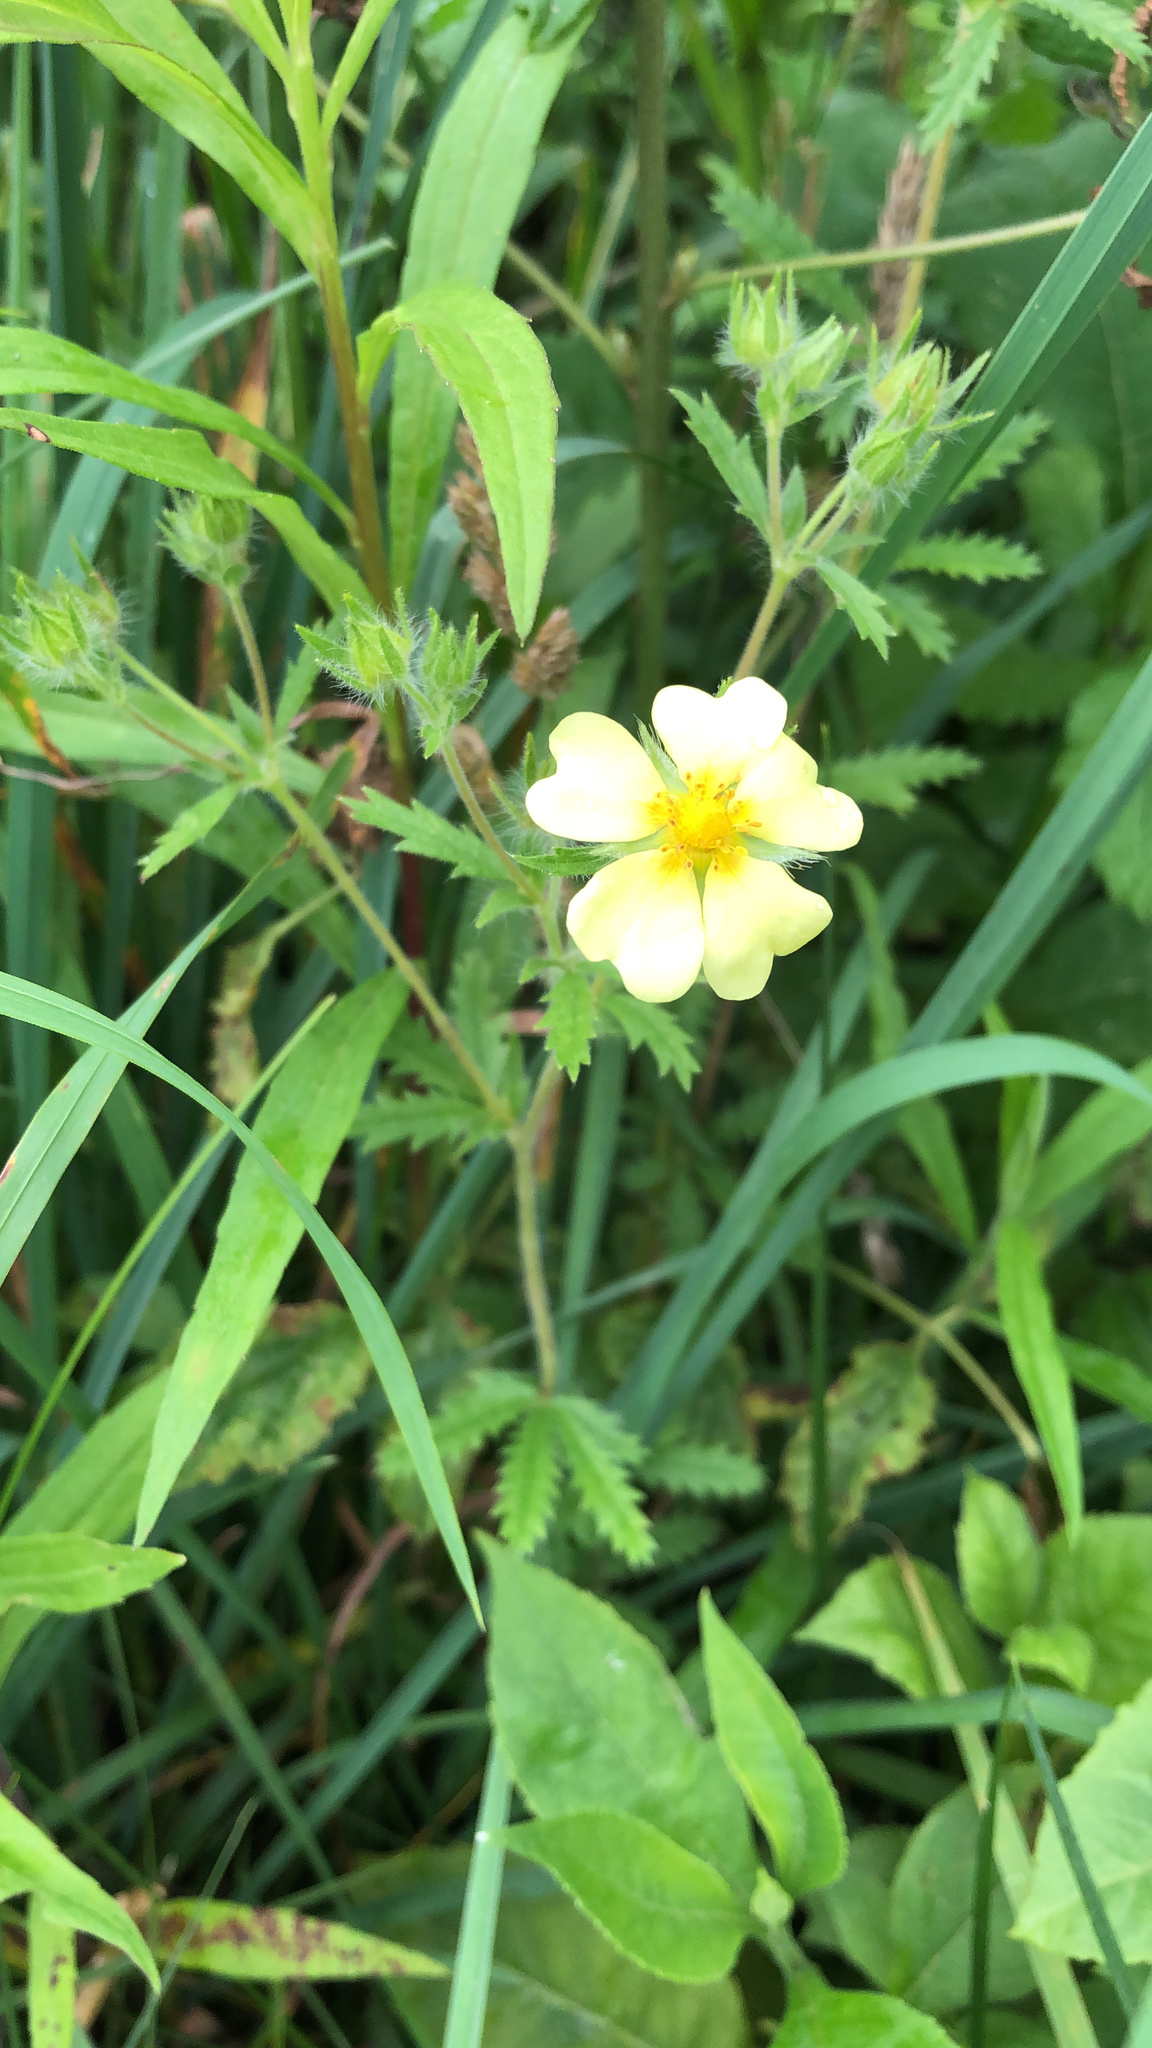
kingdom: Plantae
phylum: Tracheophyta
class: Magnoliopsida
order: Rosales
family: Rosaceae
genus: Potentilla
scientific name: Potentilla recta
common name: Sulphur cinquefoil
